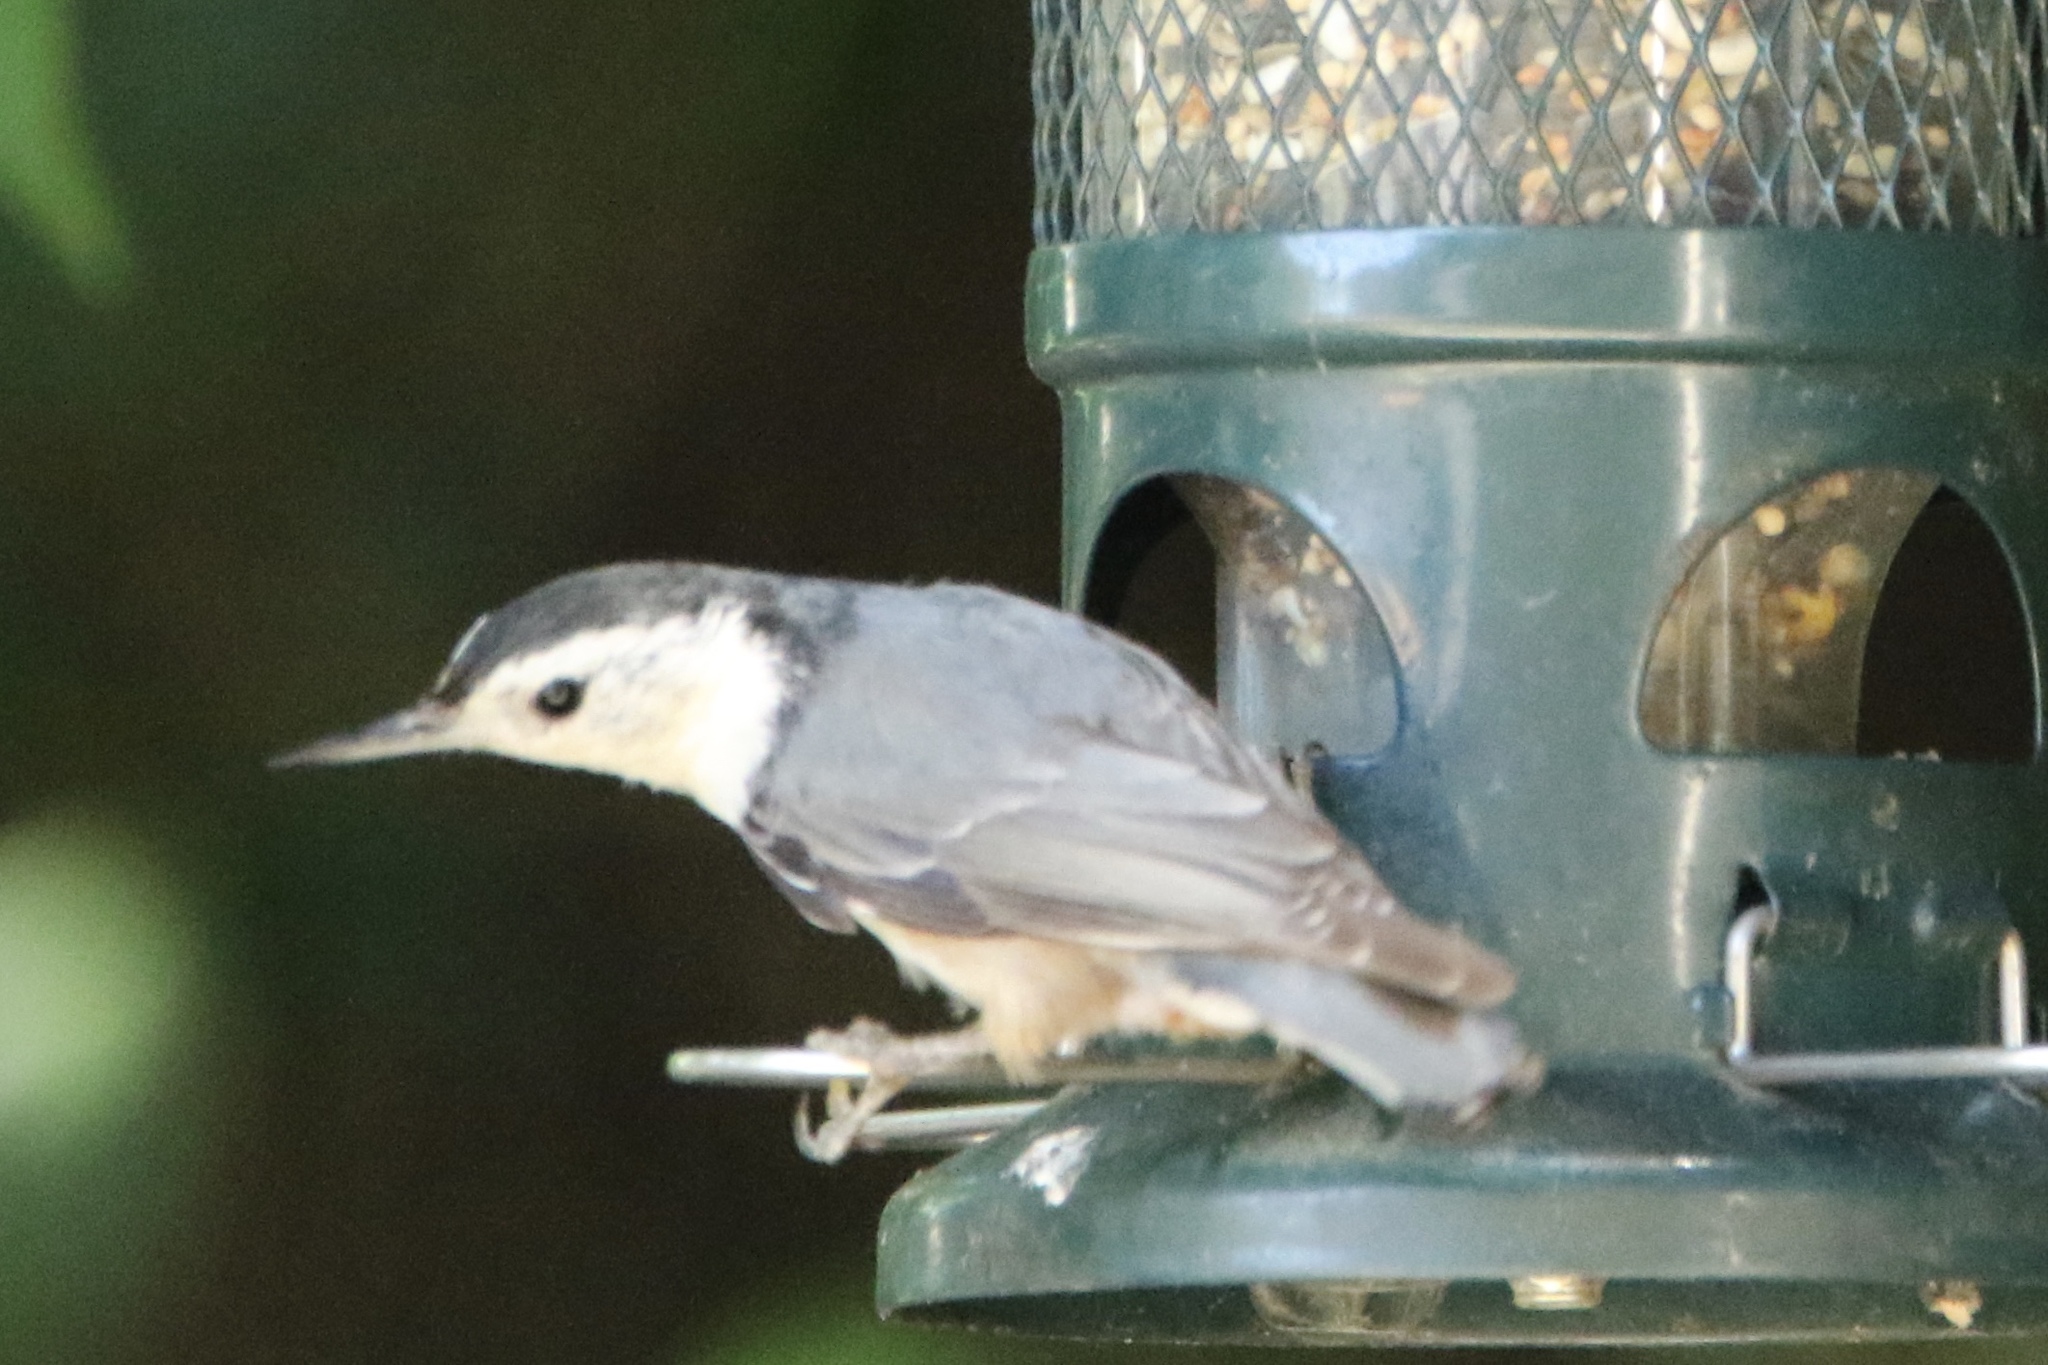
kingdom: Animalia
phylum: Chordata
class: Aves
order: Passeriformes
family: Sittidae
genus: Sitta
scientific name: Sitta carolinensis
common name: White-breasted nuthatch
